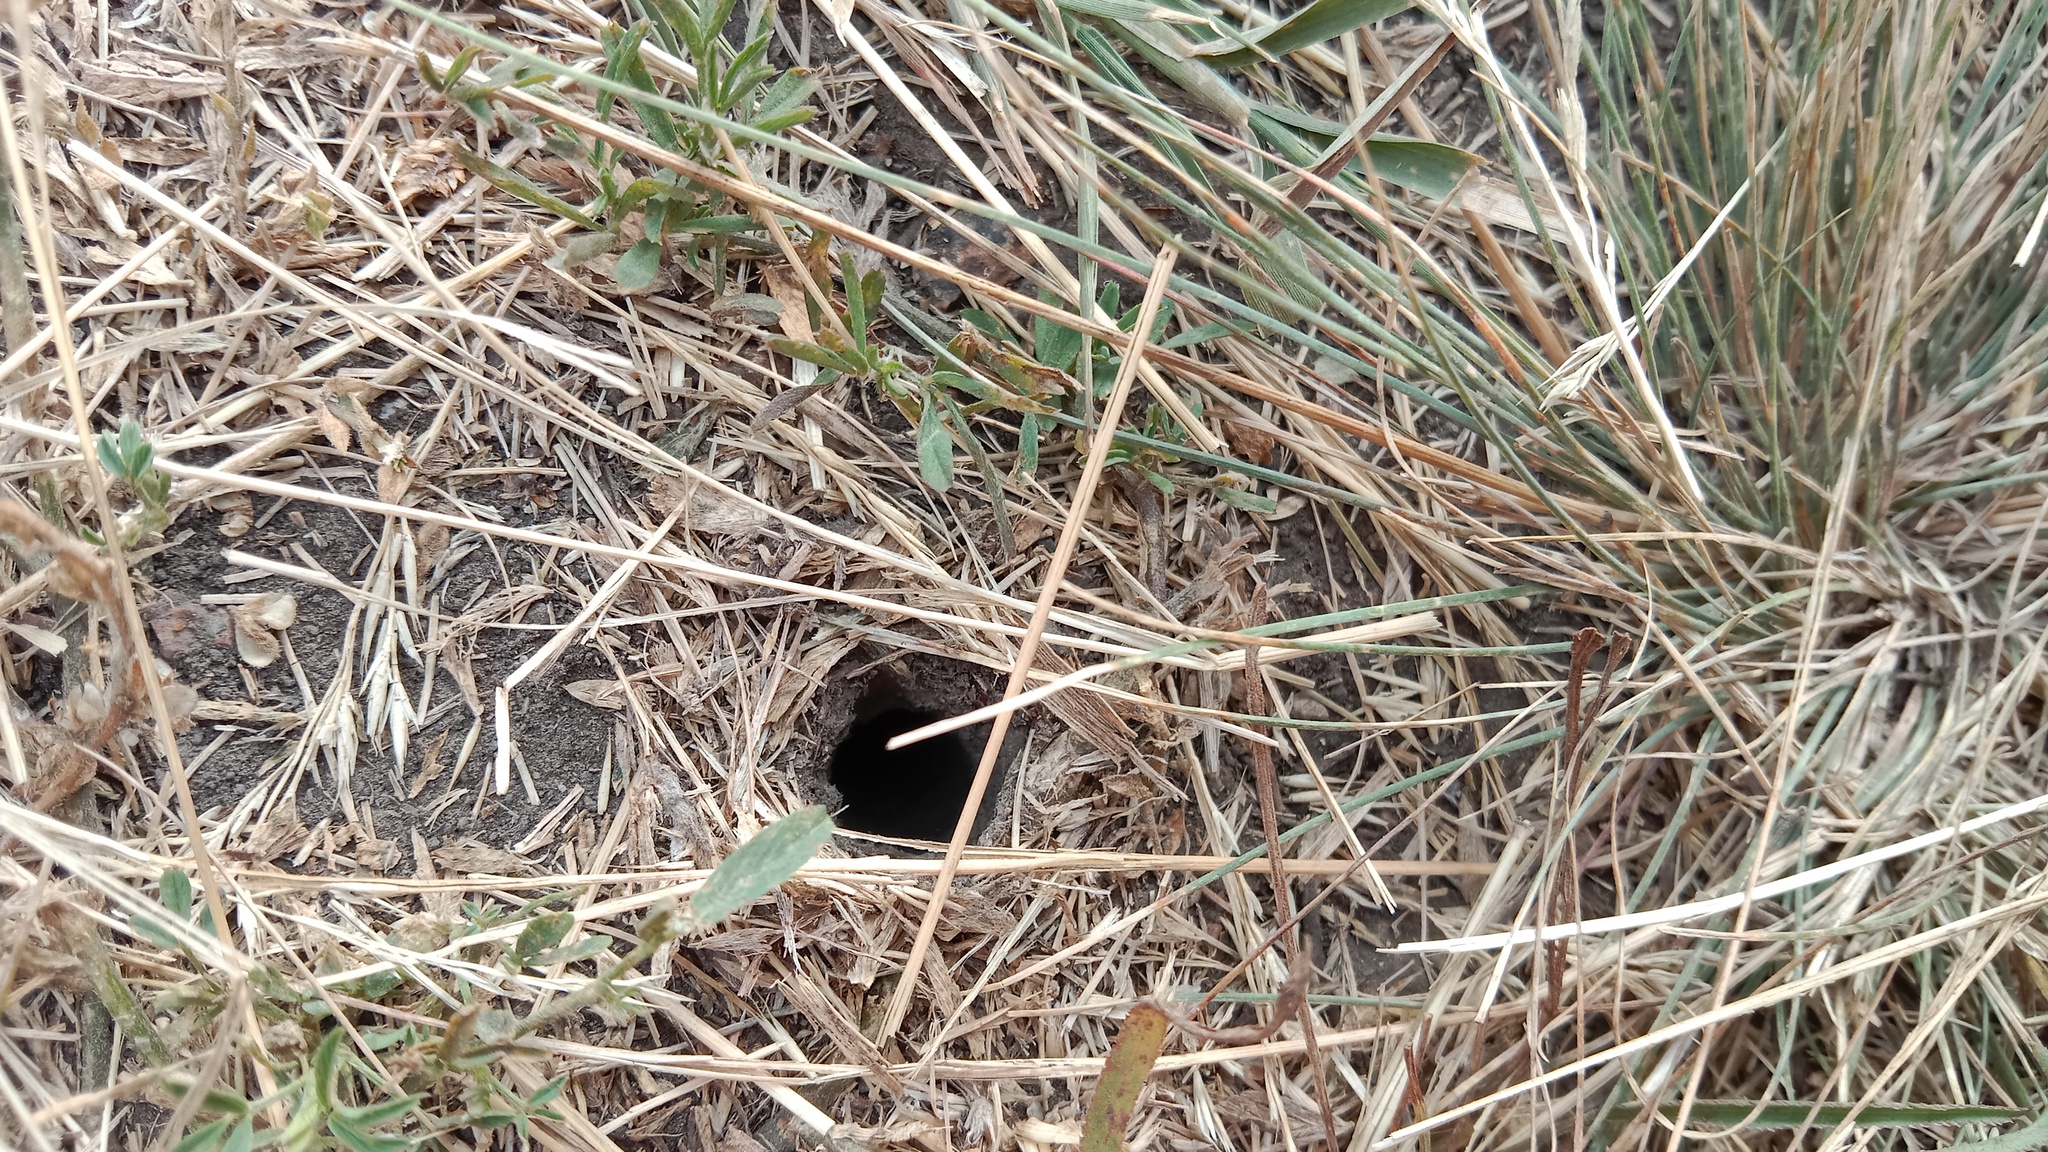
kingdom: Animalia
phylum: Arthropoda
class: Arachnida
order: Araneae
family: Lycosidae
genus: Lycosa
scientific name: Lycosa singoriensis
